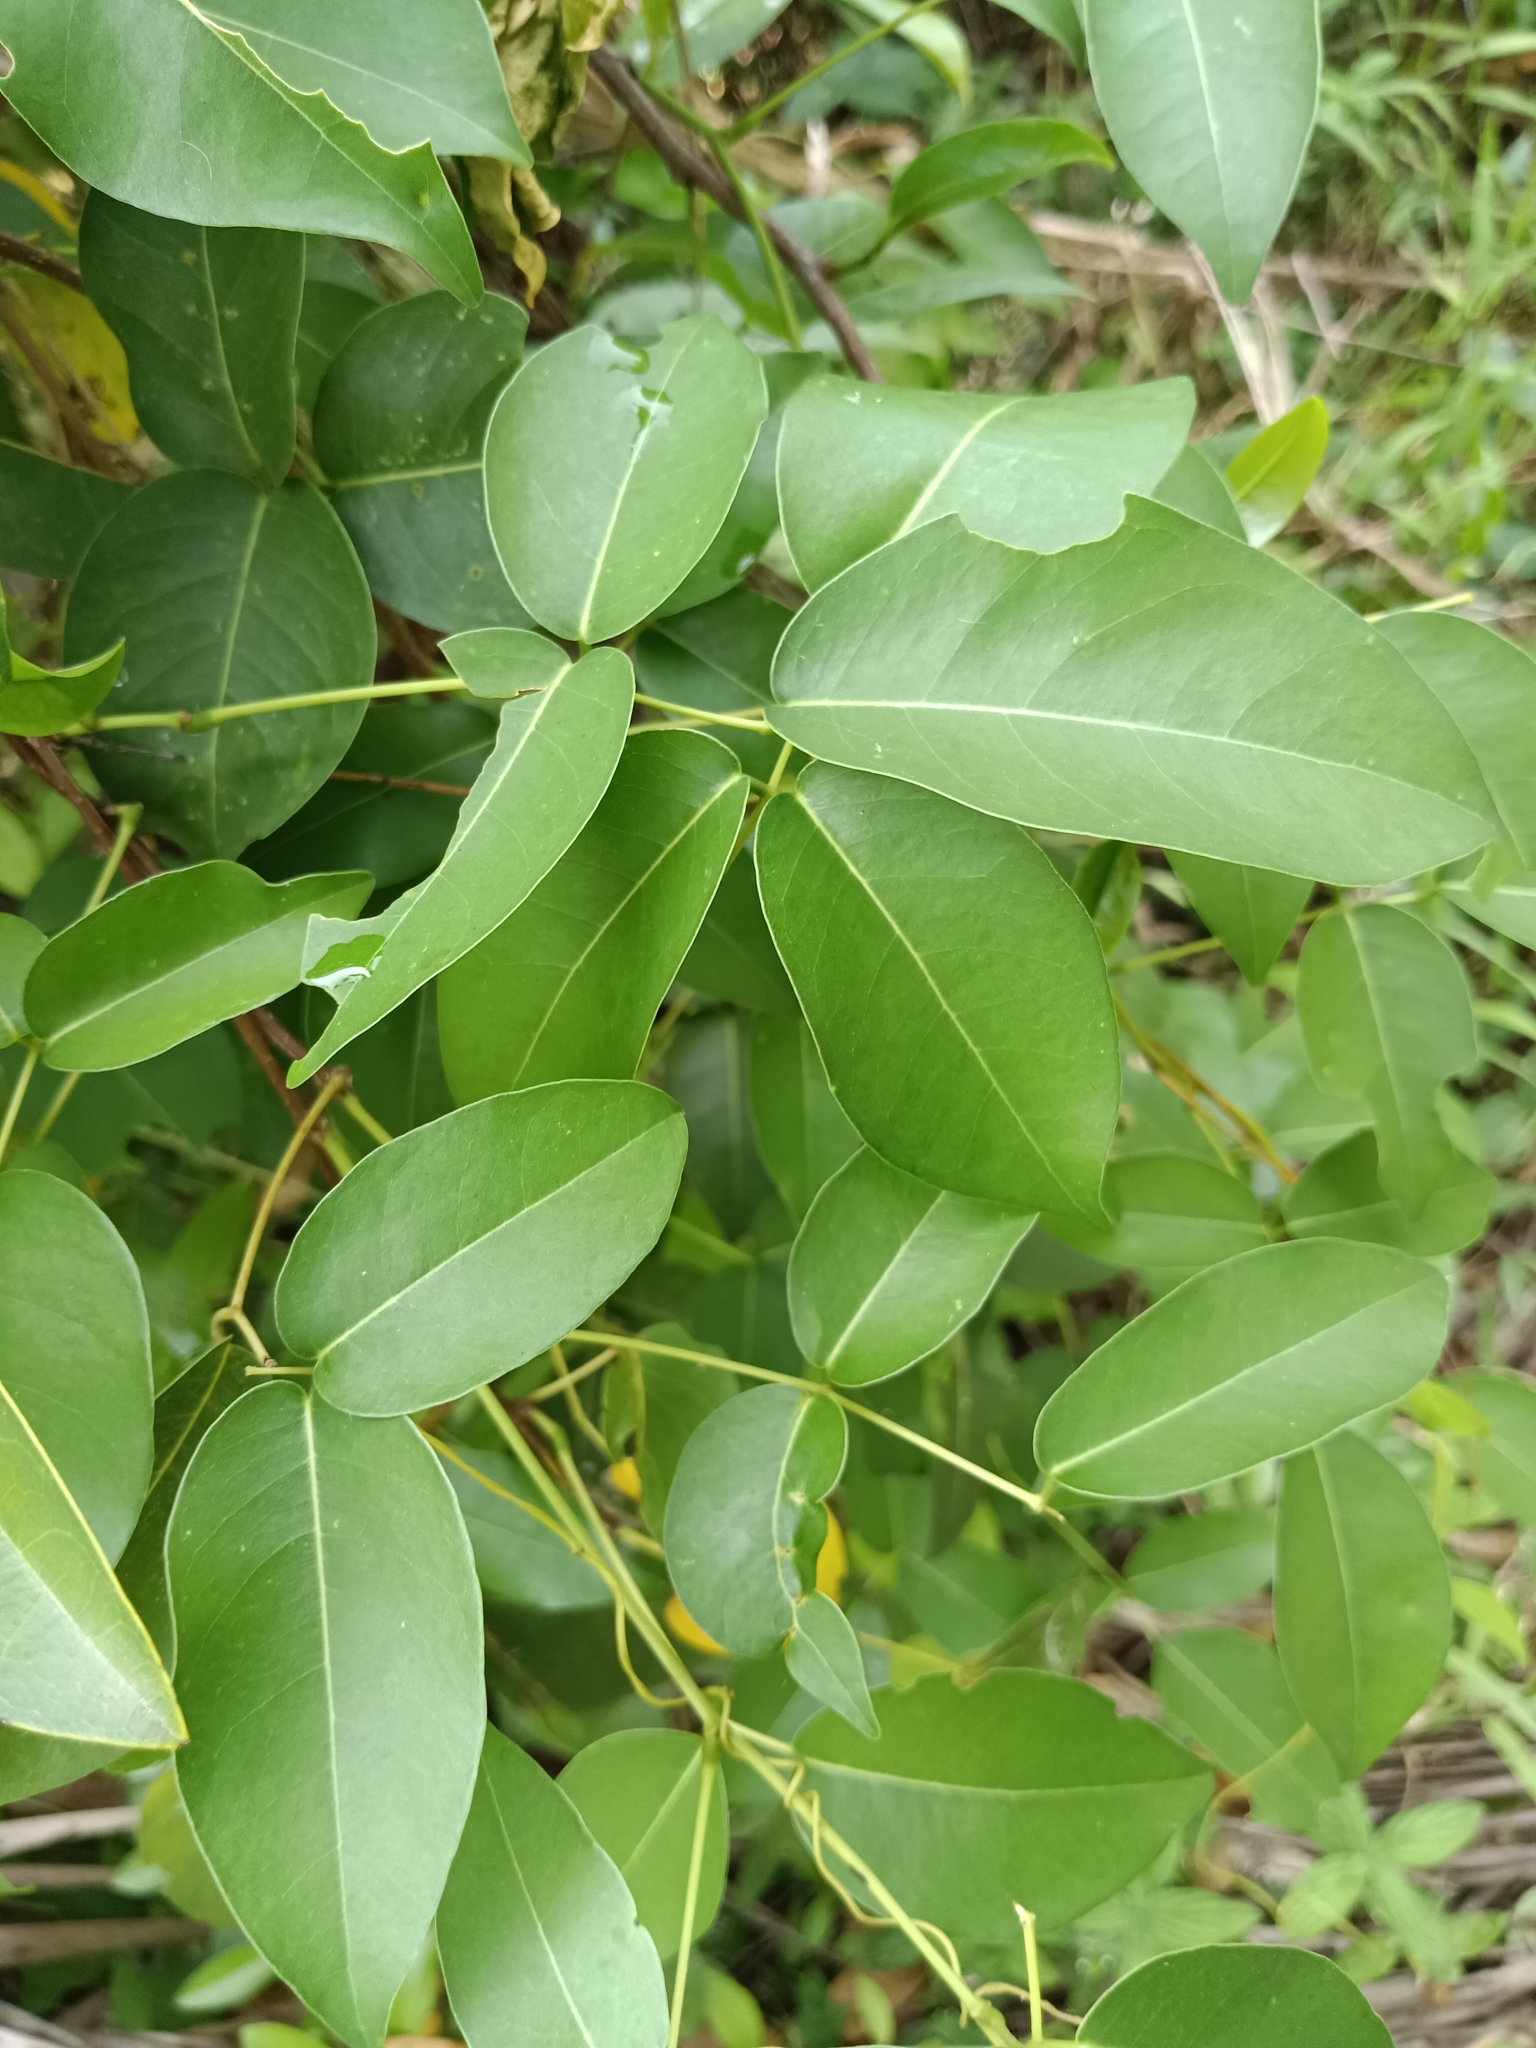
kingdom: Plantae
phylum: Tracheophyta
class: Magnoliopsida
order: Fabales
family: Fabaceae
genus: Derris
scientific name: Derris trifoliata
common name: Three-leaf derris
